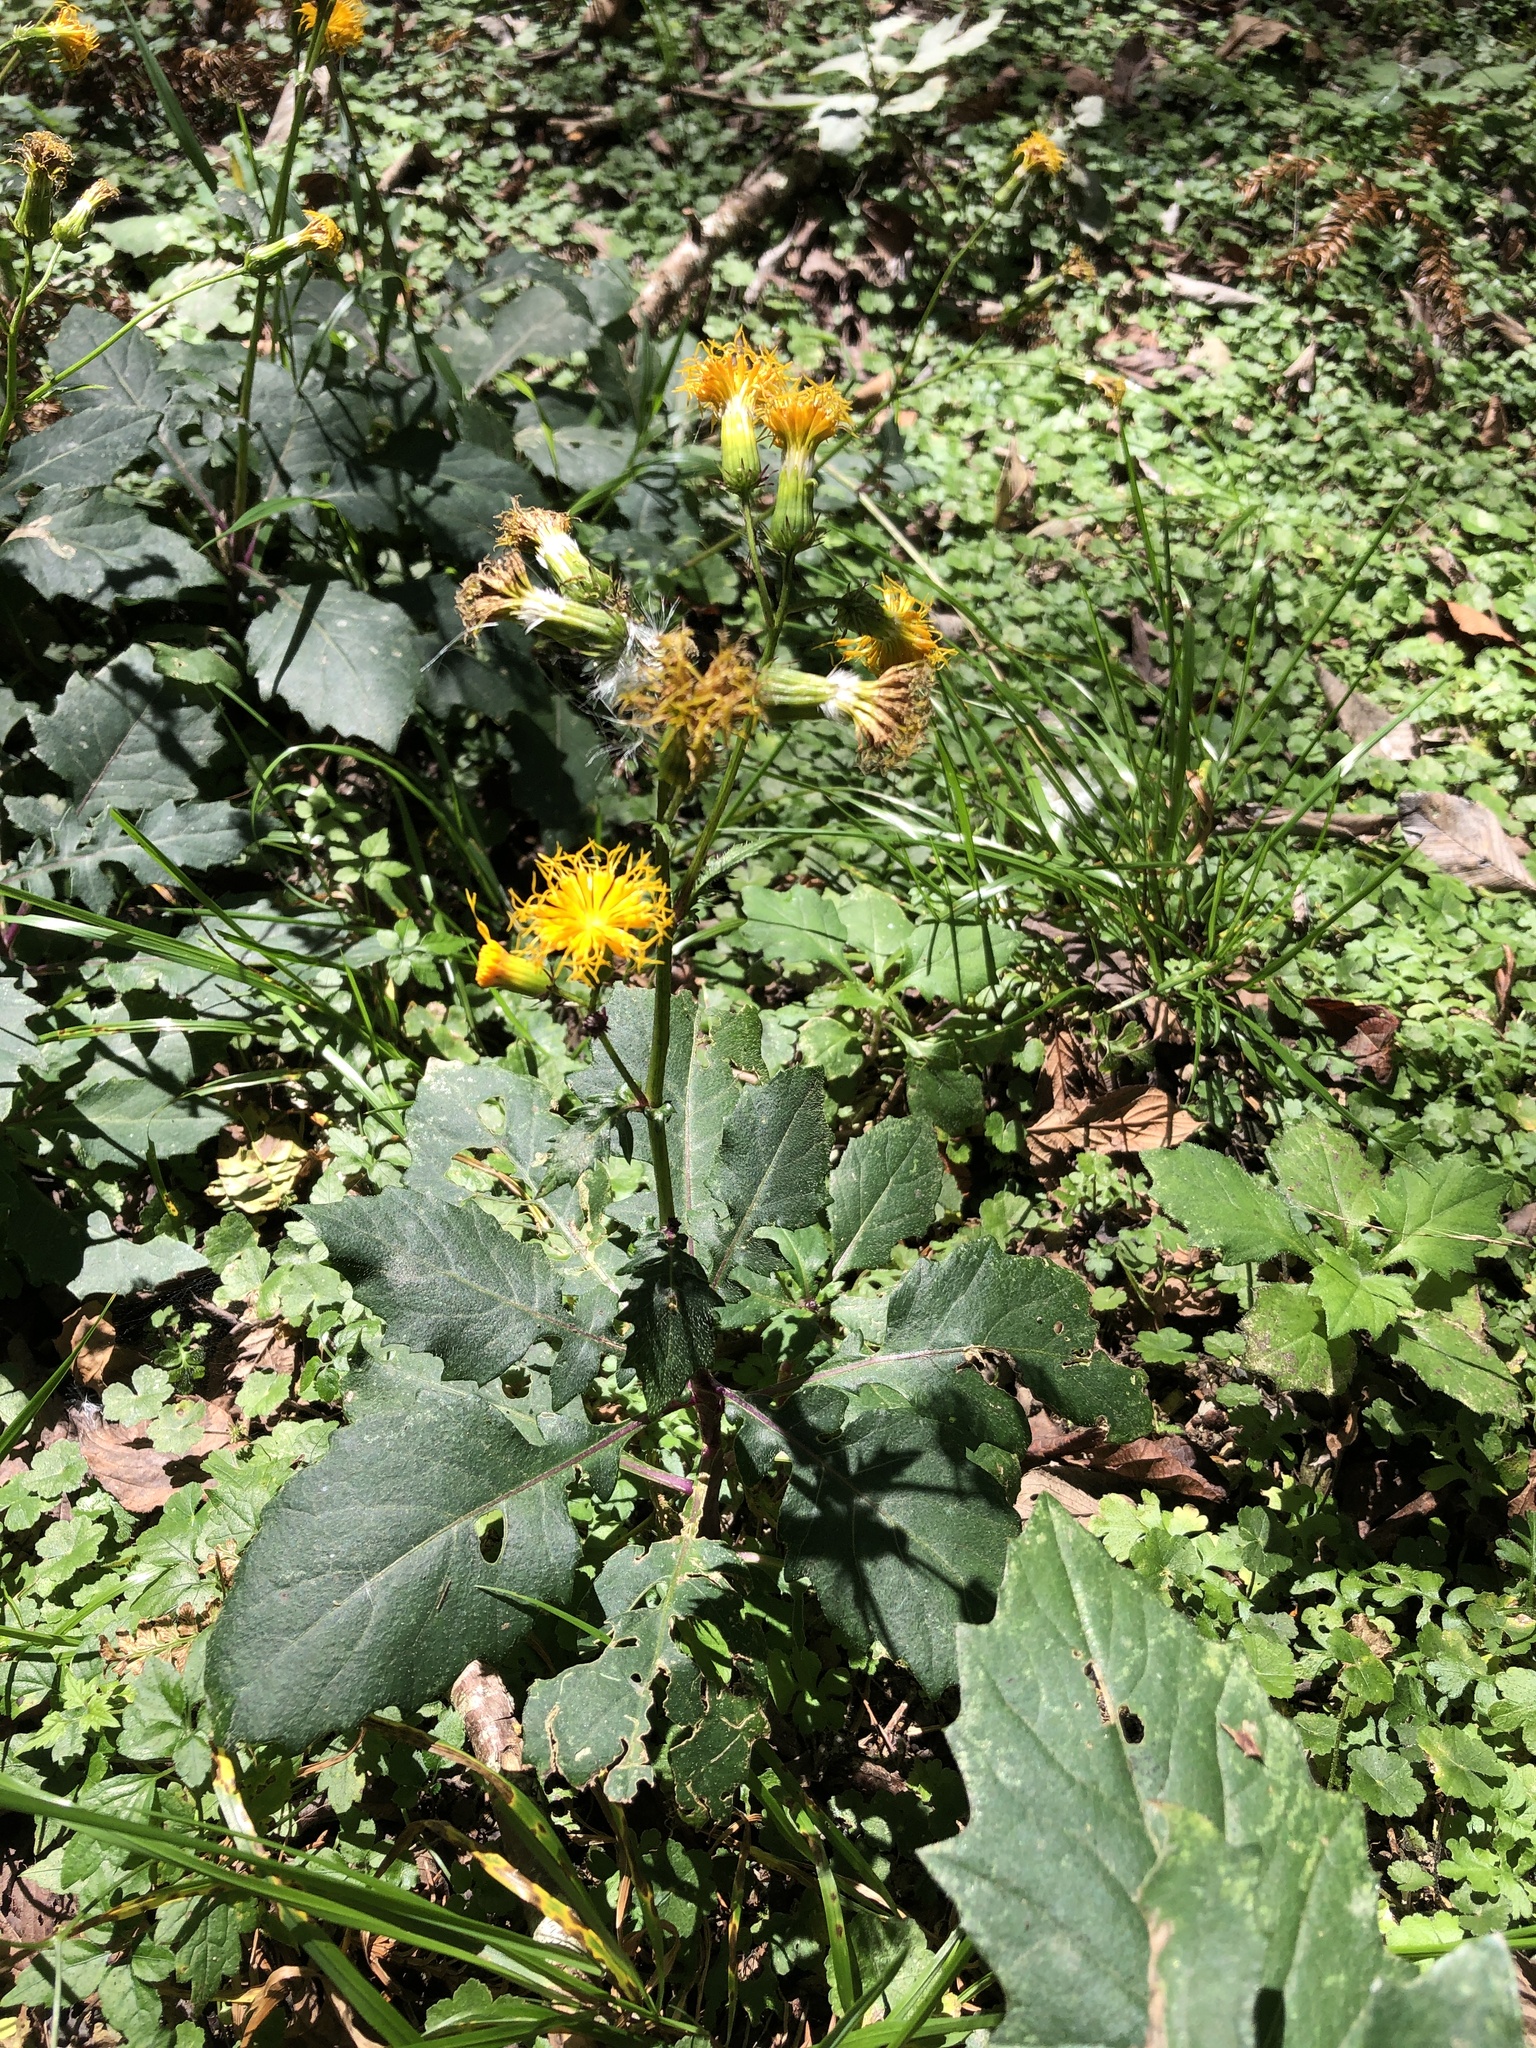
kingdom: Plantae
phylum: Tracheophyta
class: Magnoliopsida
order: Asterales
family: Asteraceae
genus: Gynura
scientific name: Gynura japonica
